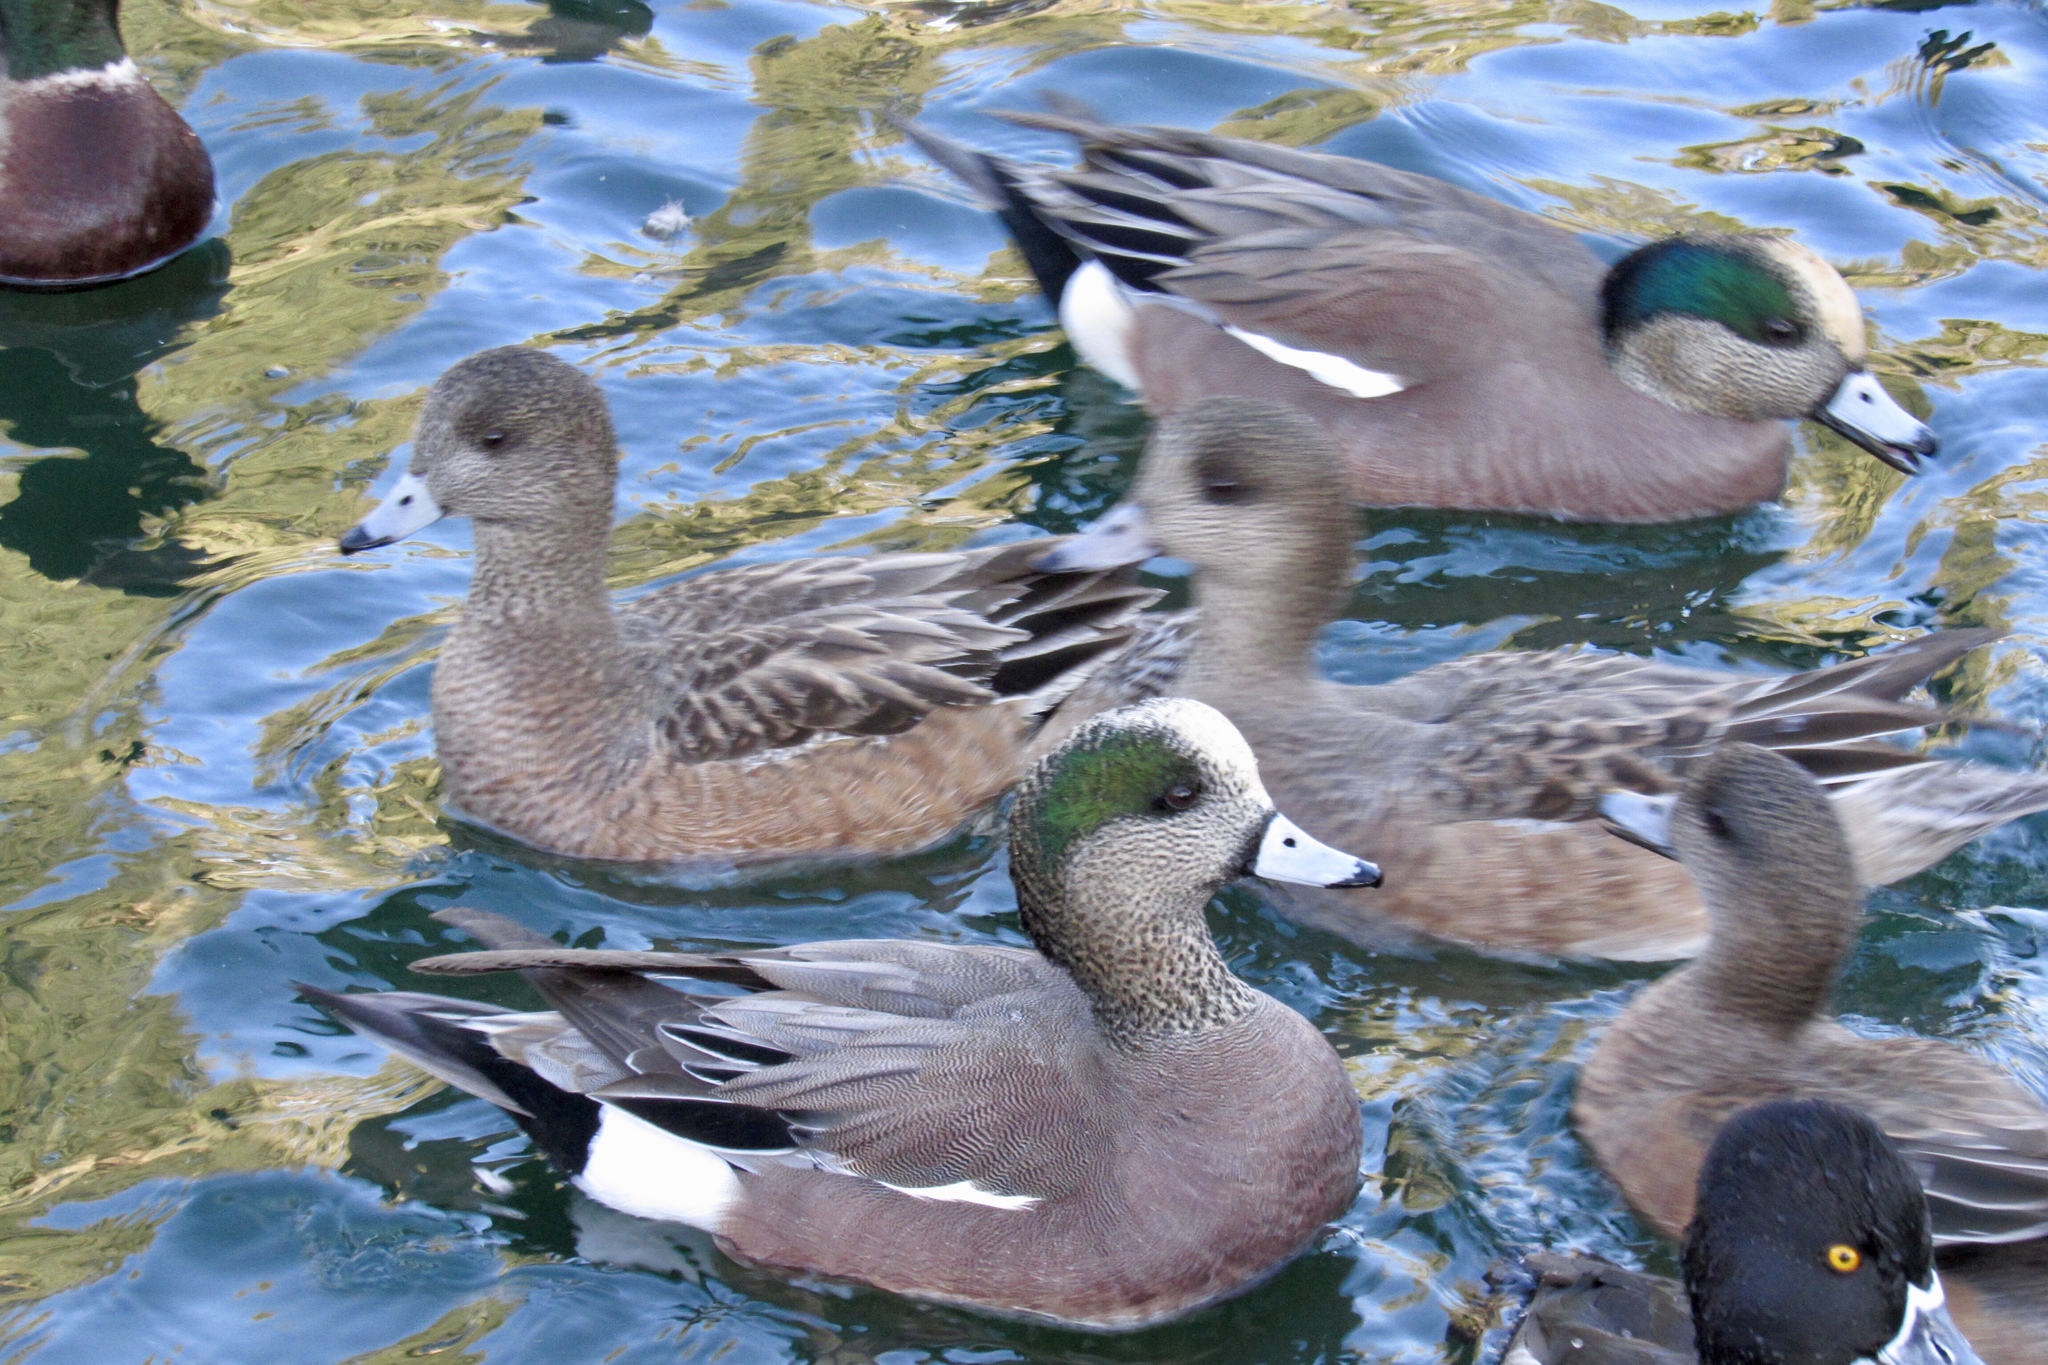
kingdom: Animalia
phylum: Chordata
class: Aves
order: Anseriformes
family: Anatidae
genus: Mareca
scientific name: Mareca americana
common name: American wigeon
